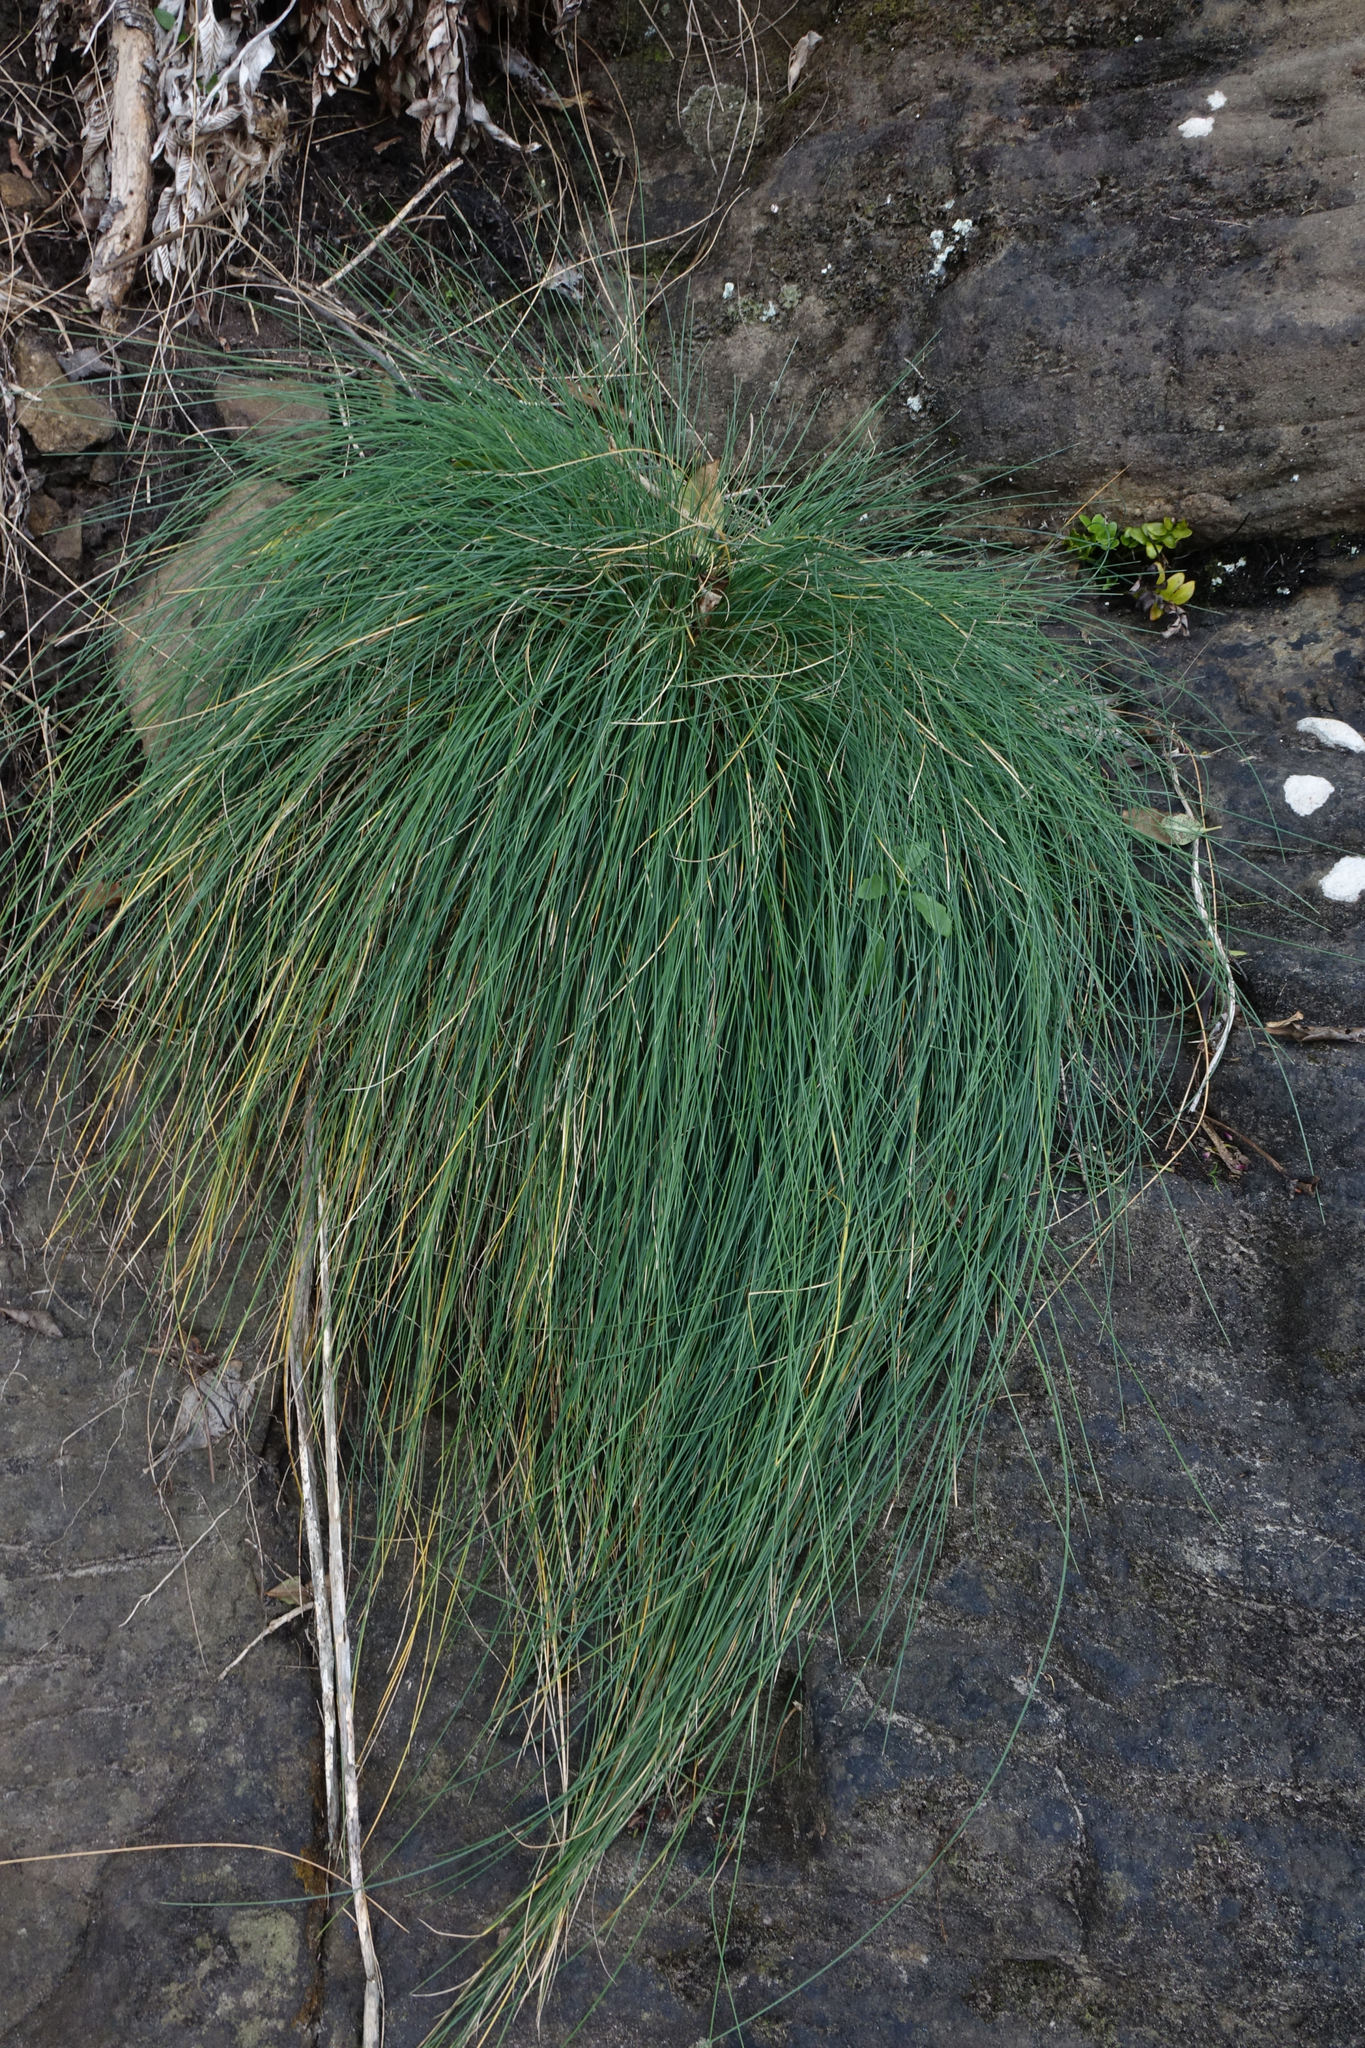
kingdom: Plantae
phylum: Tracheophyta
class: Liliopsida
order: Poales
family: Poaceae
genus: Poa
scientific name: Poa astonii
